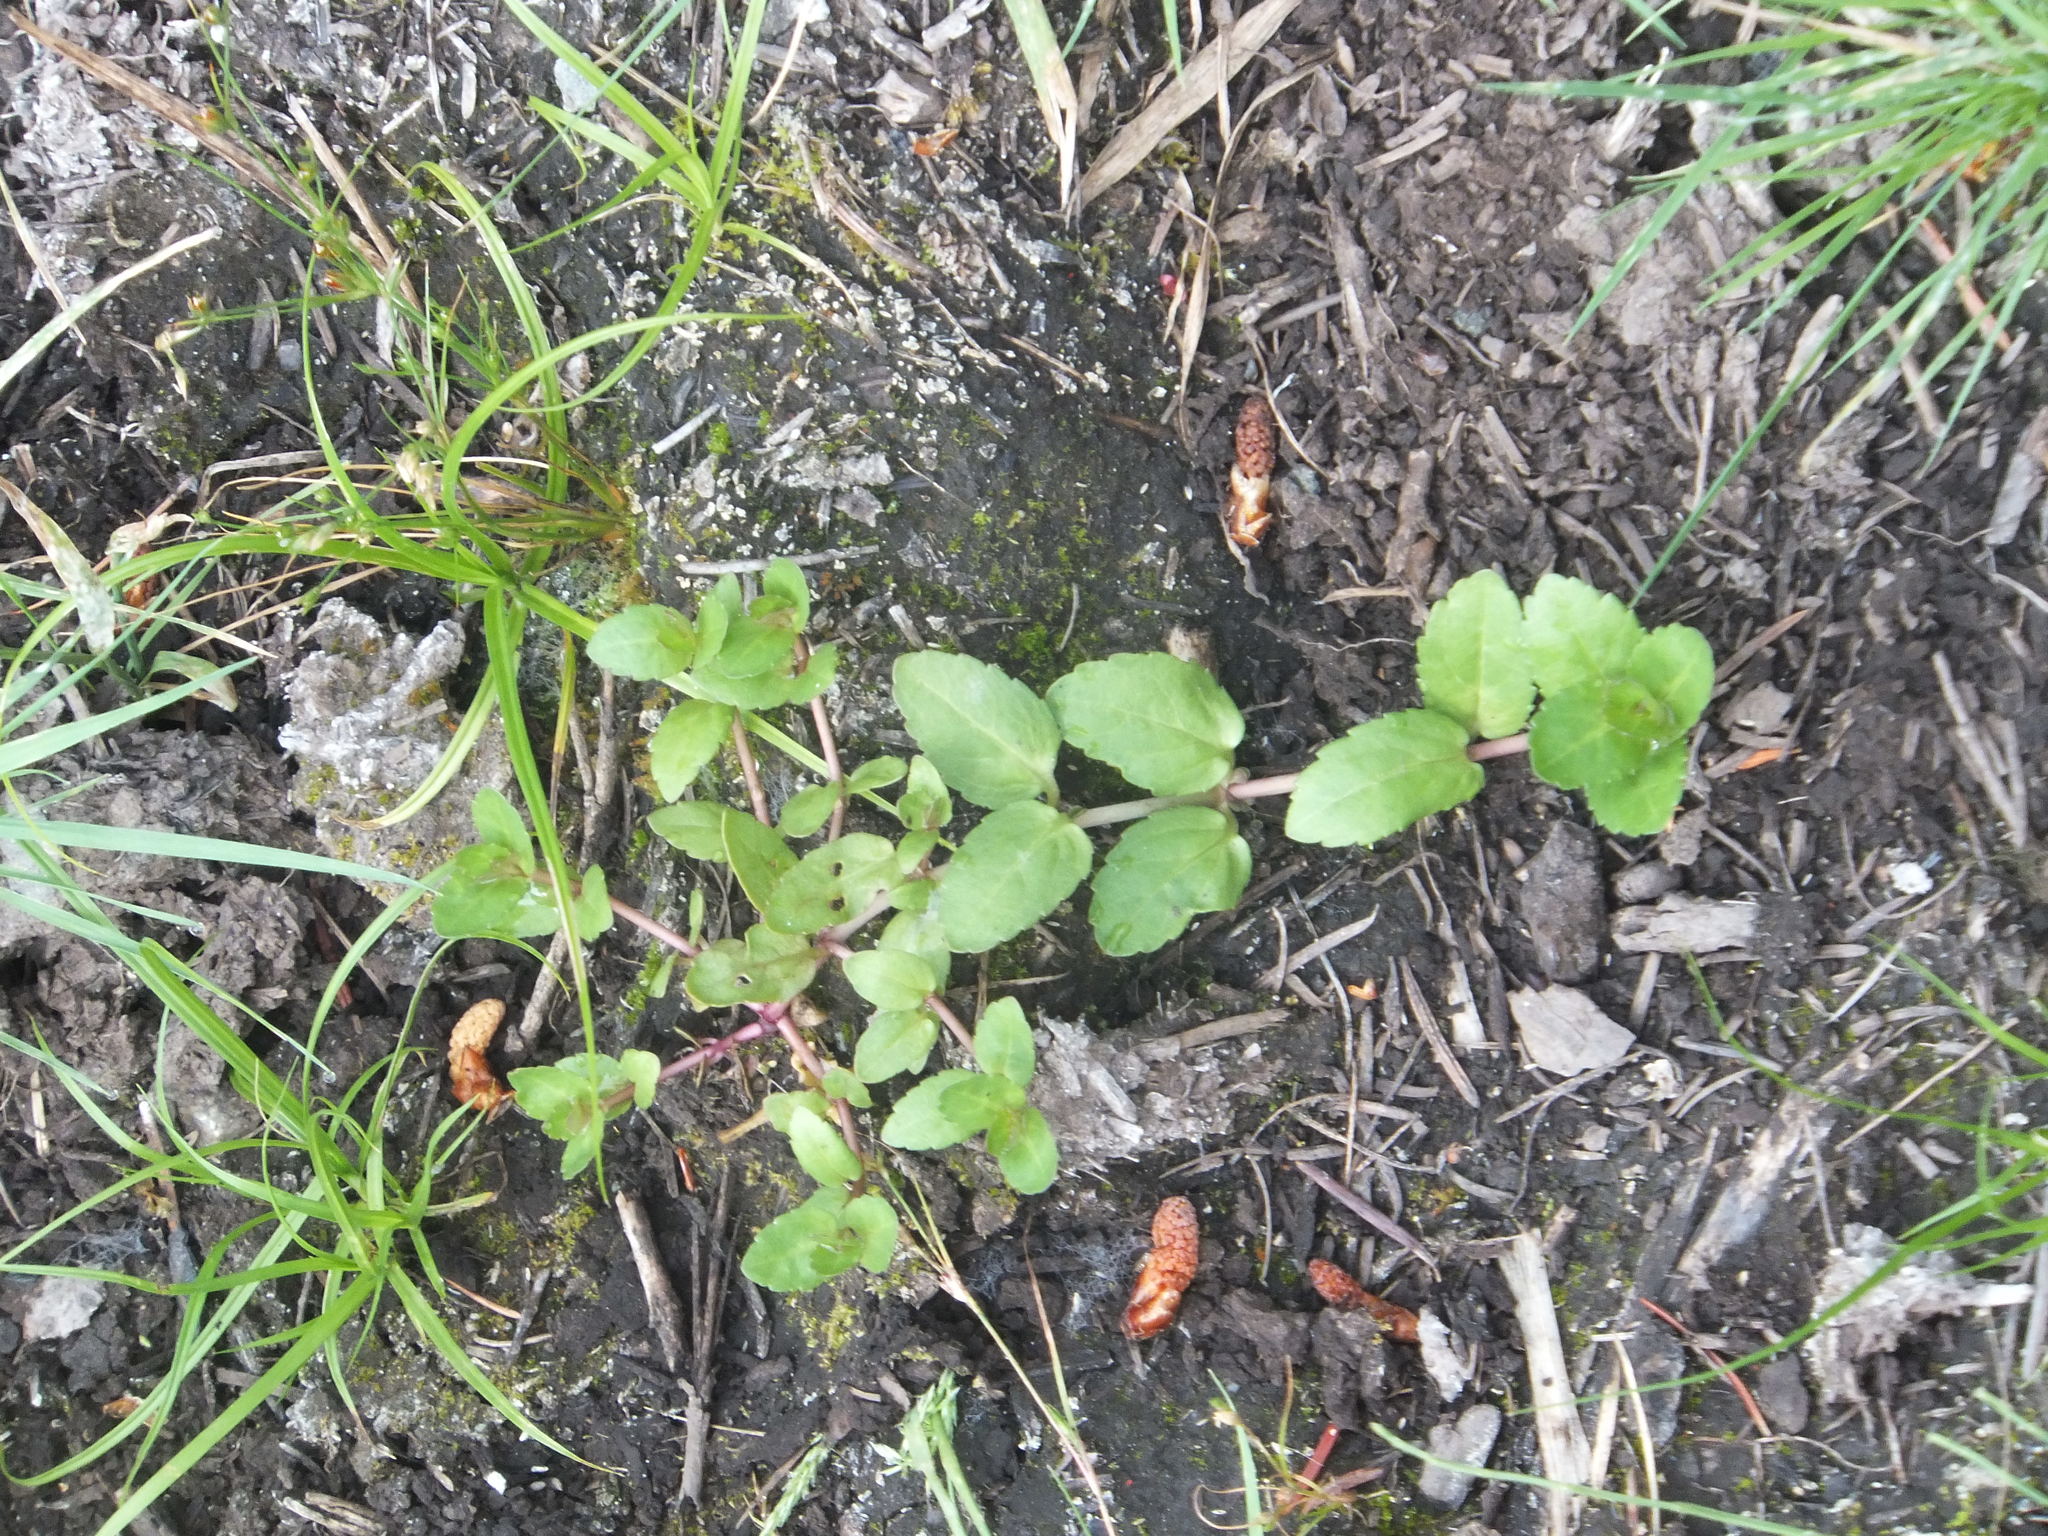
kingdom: Plantae
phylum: Tracheophyta
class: Magnoliopsida
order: Lamiales
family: Plantaginaceae
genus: Veronica
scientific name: Veronica americana
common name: American brooklime
